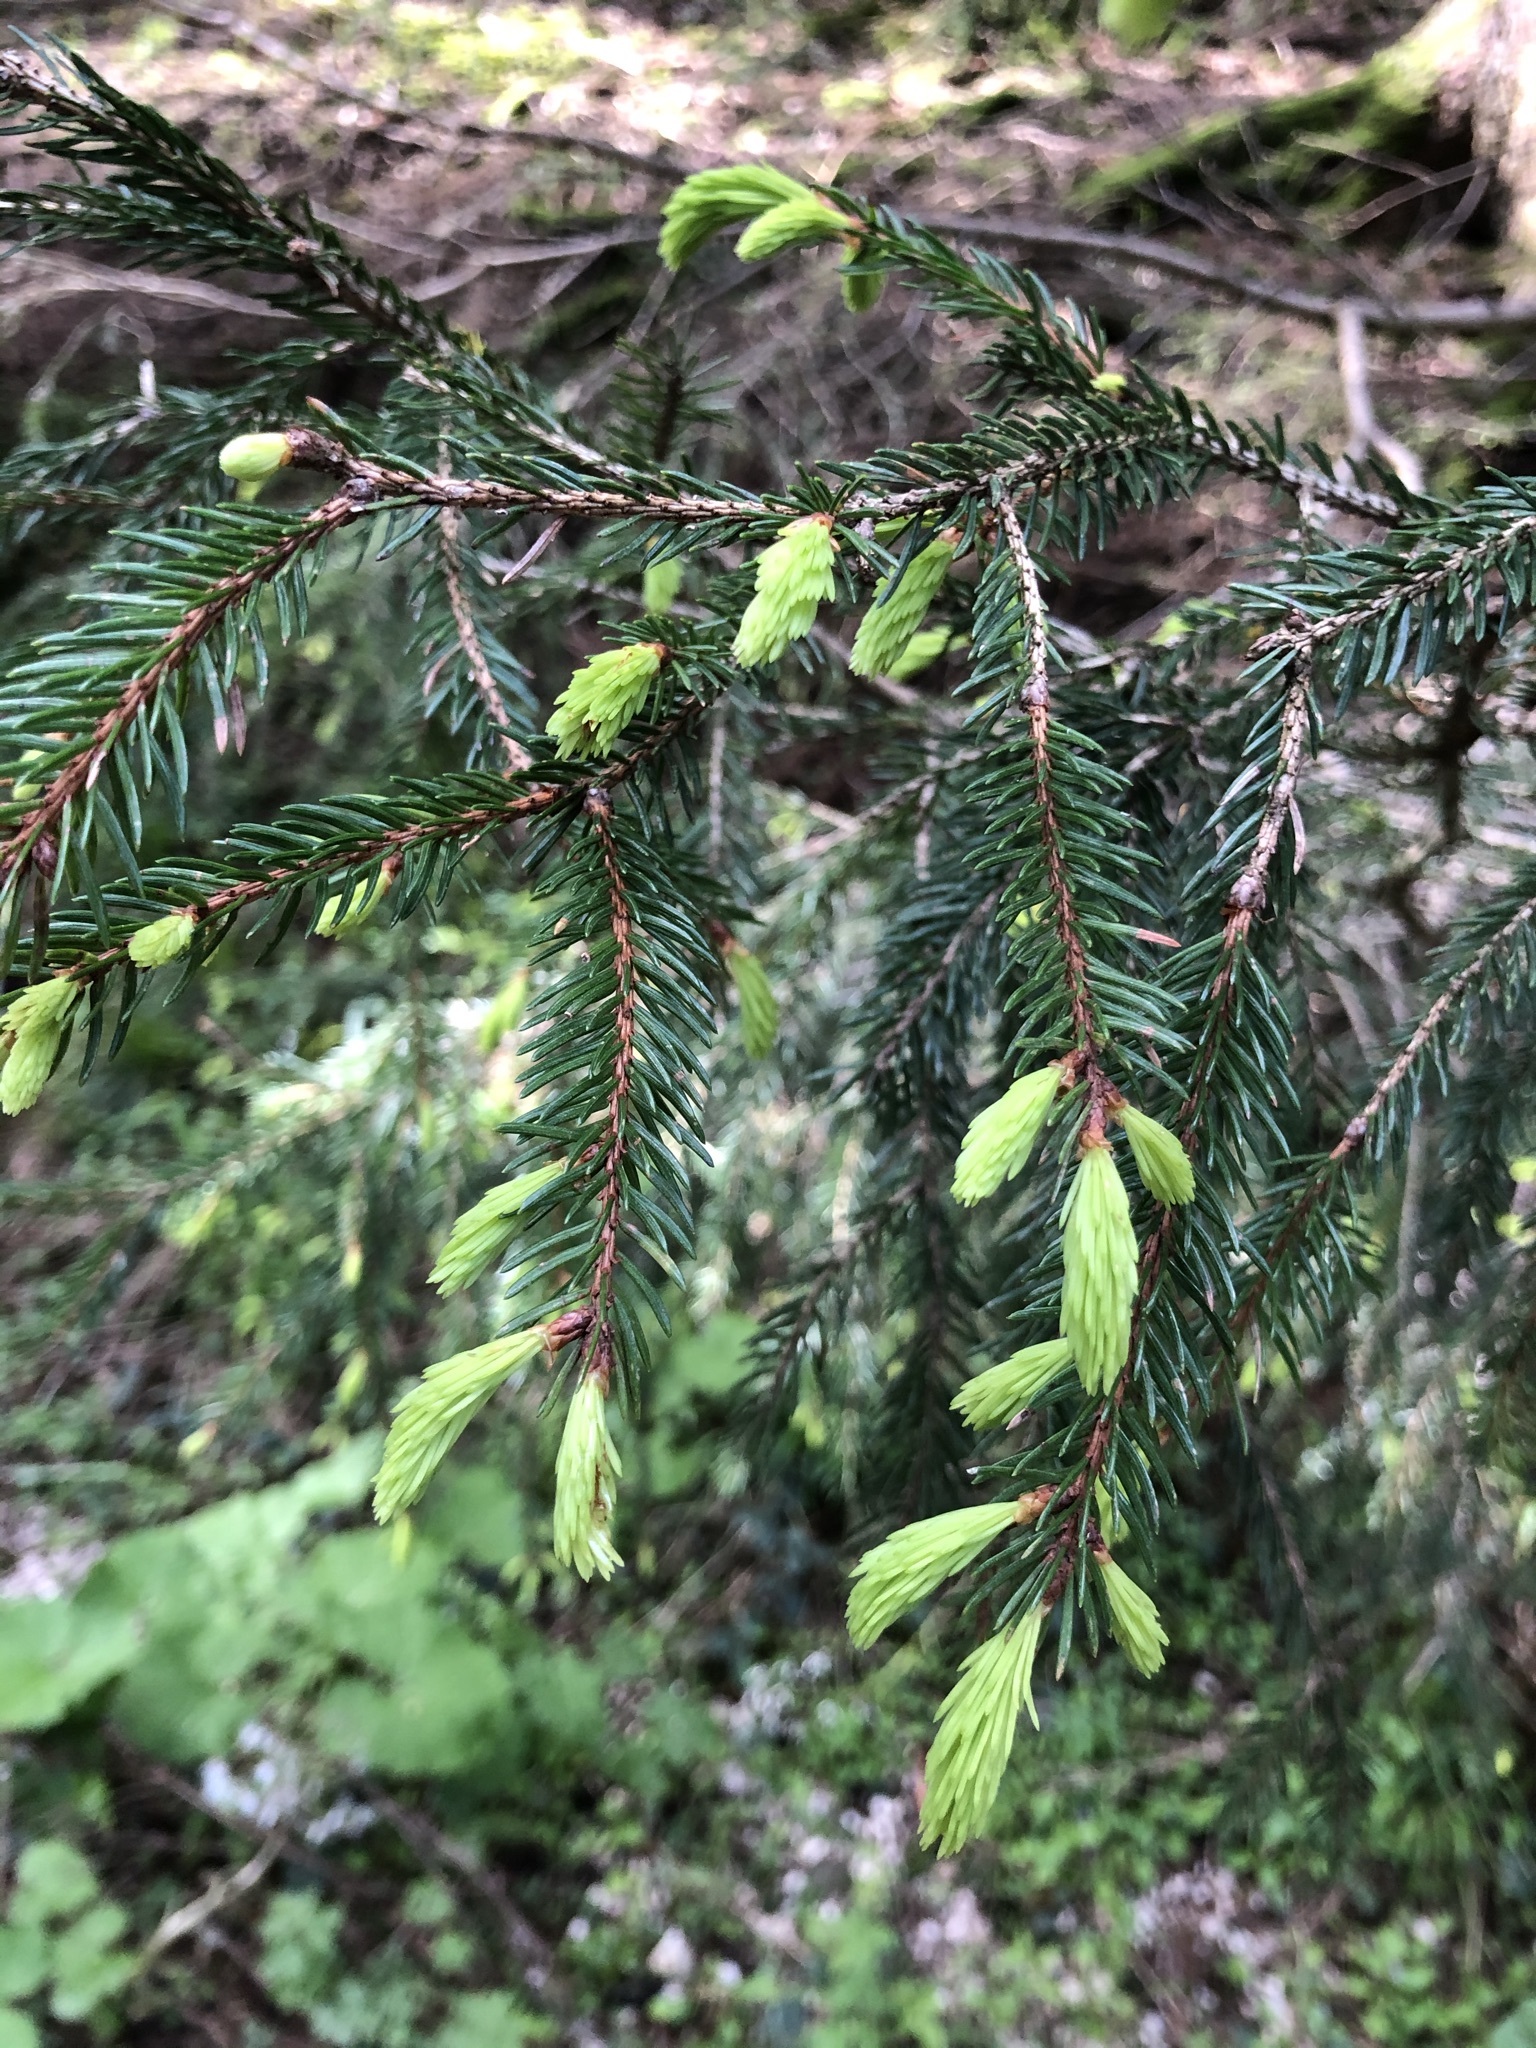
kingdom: Plantae
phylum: Tracheophyta
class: Pinopsida
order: Pinales
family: Pinaceae
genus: Picea
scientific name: Picea abies
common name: Norway spruce
